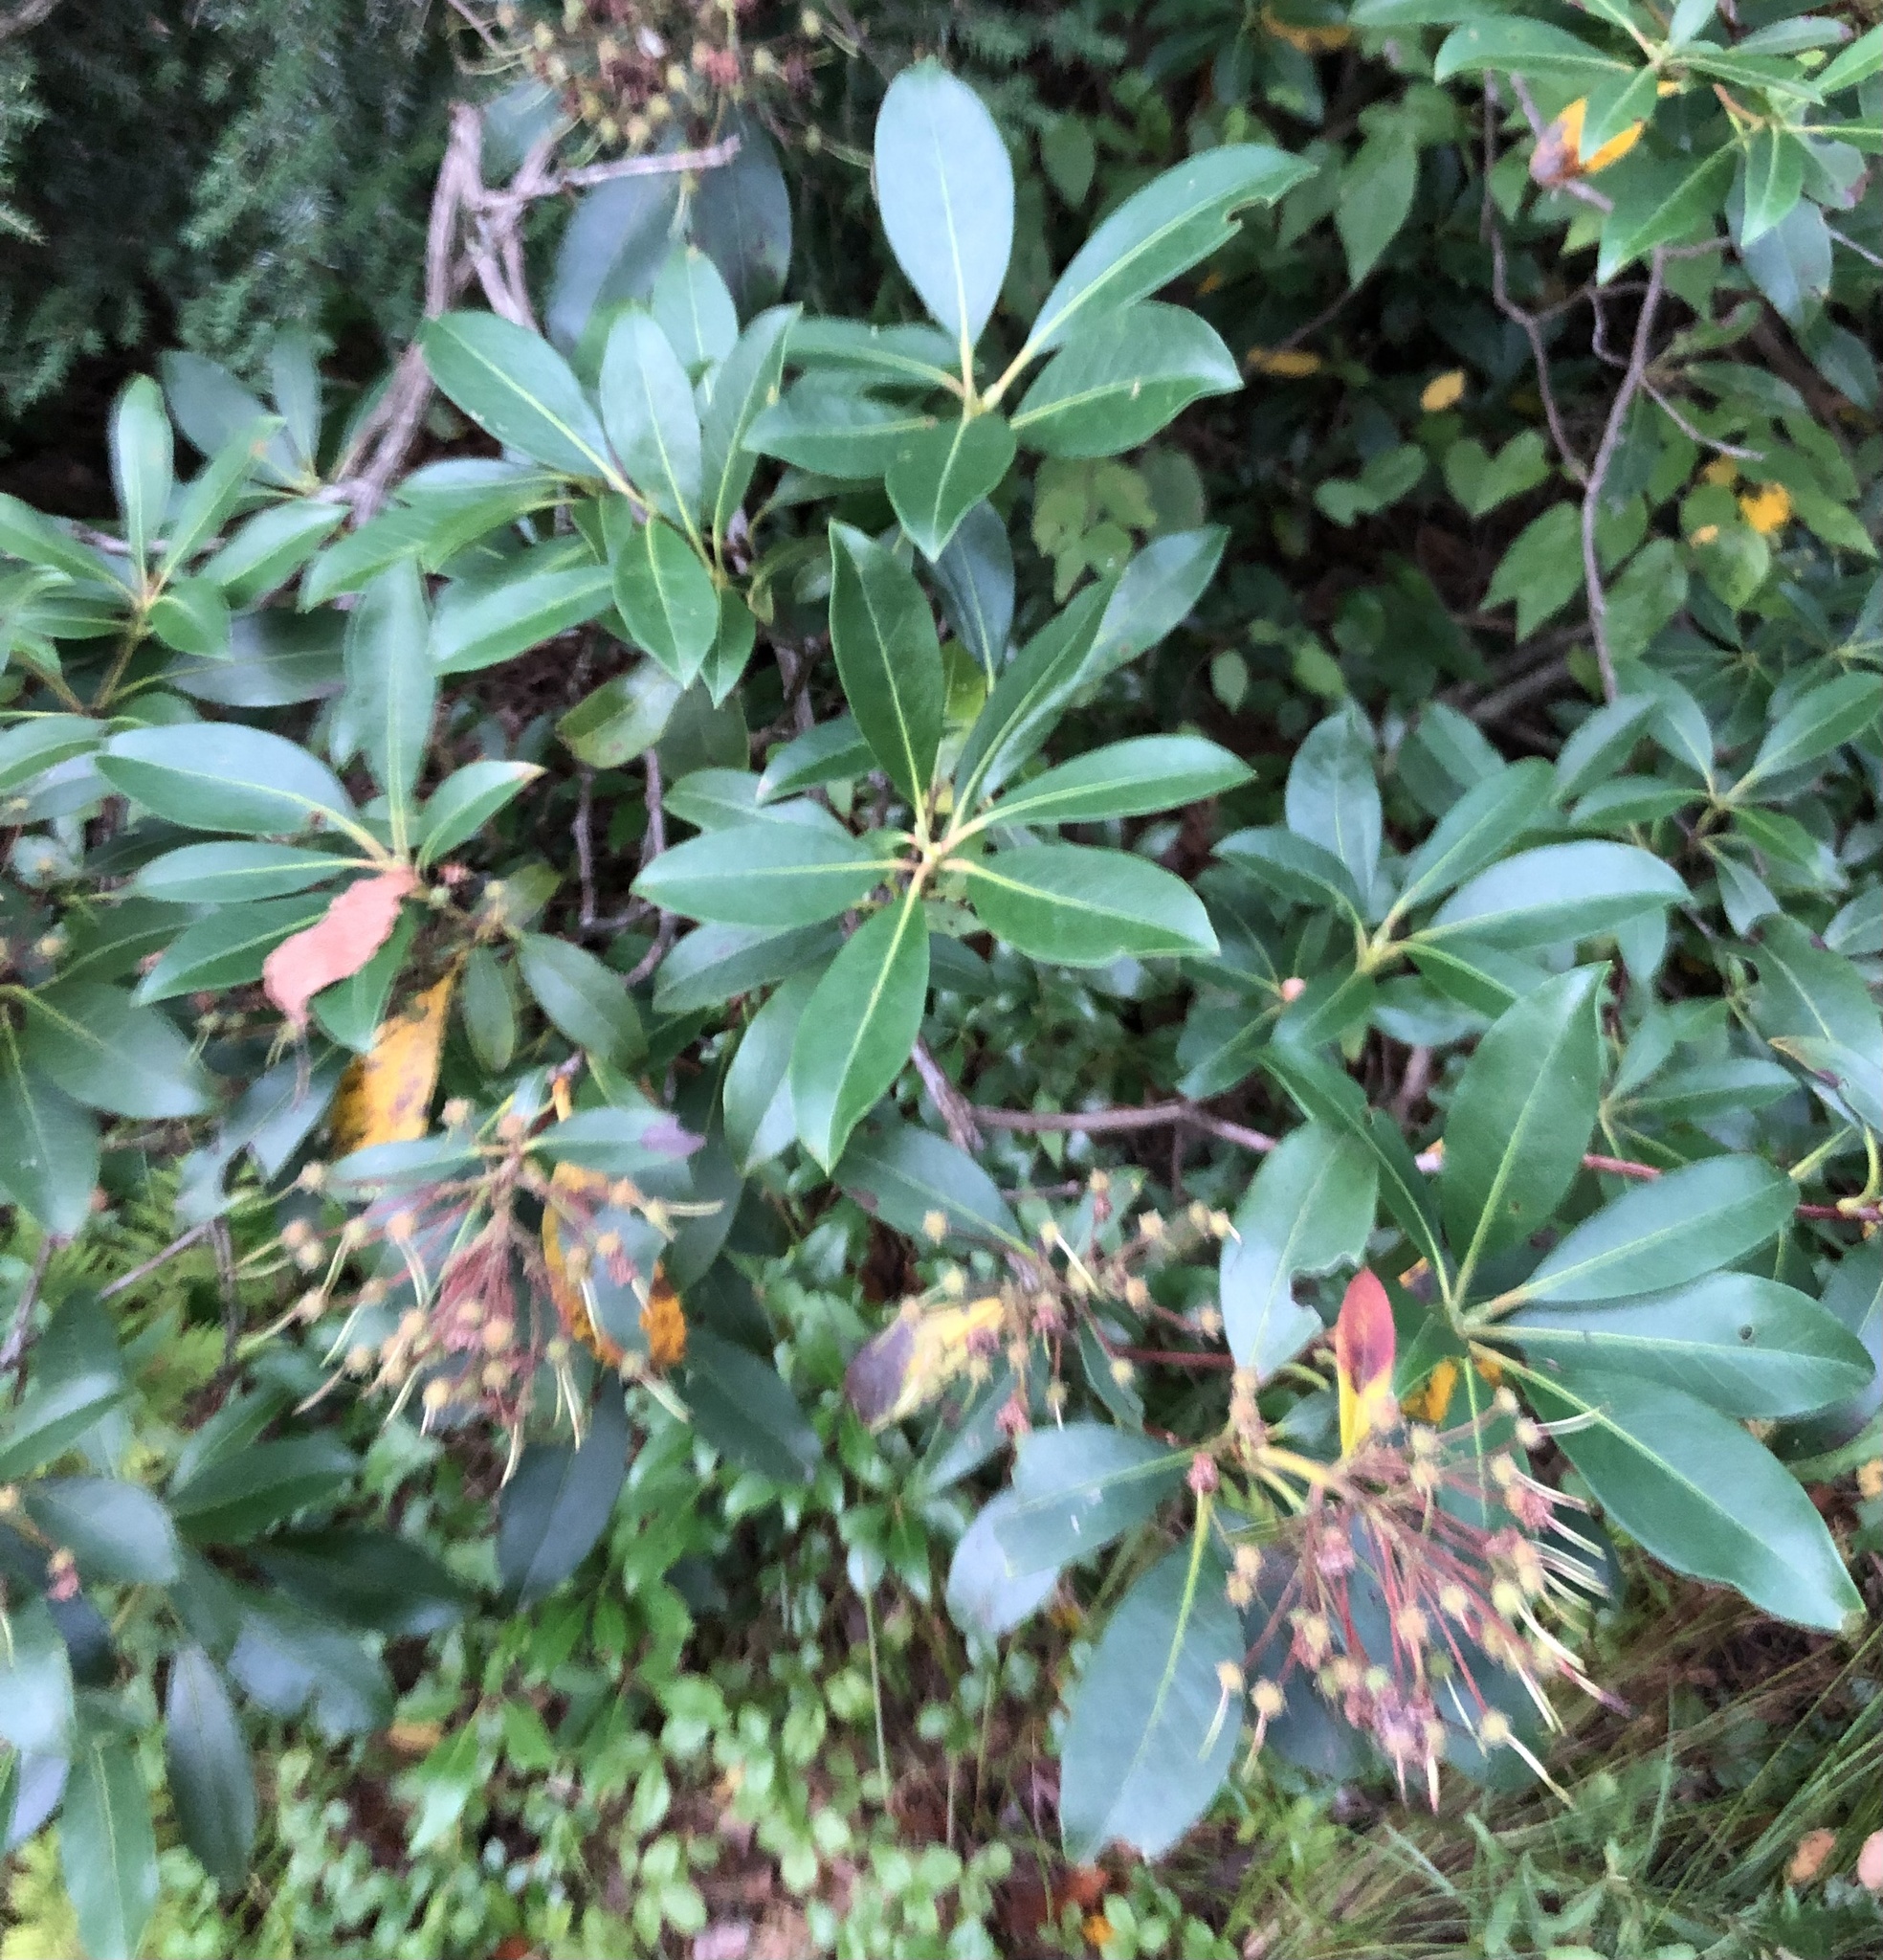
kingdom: Plantae
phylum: Tracheophyta
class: Magnoliopsida
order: Ericales
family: Ericaceae
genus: Kalmia
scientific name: Kalmia latifolia
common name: Mountain-laurel
